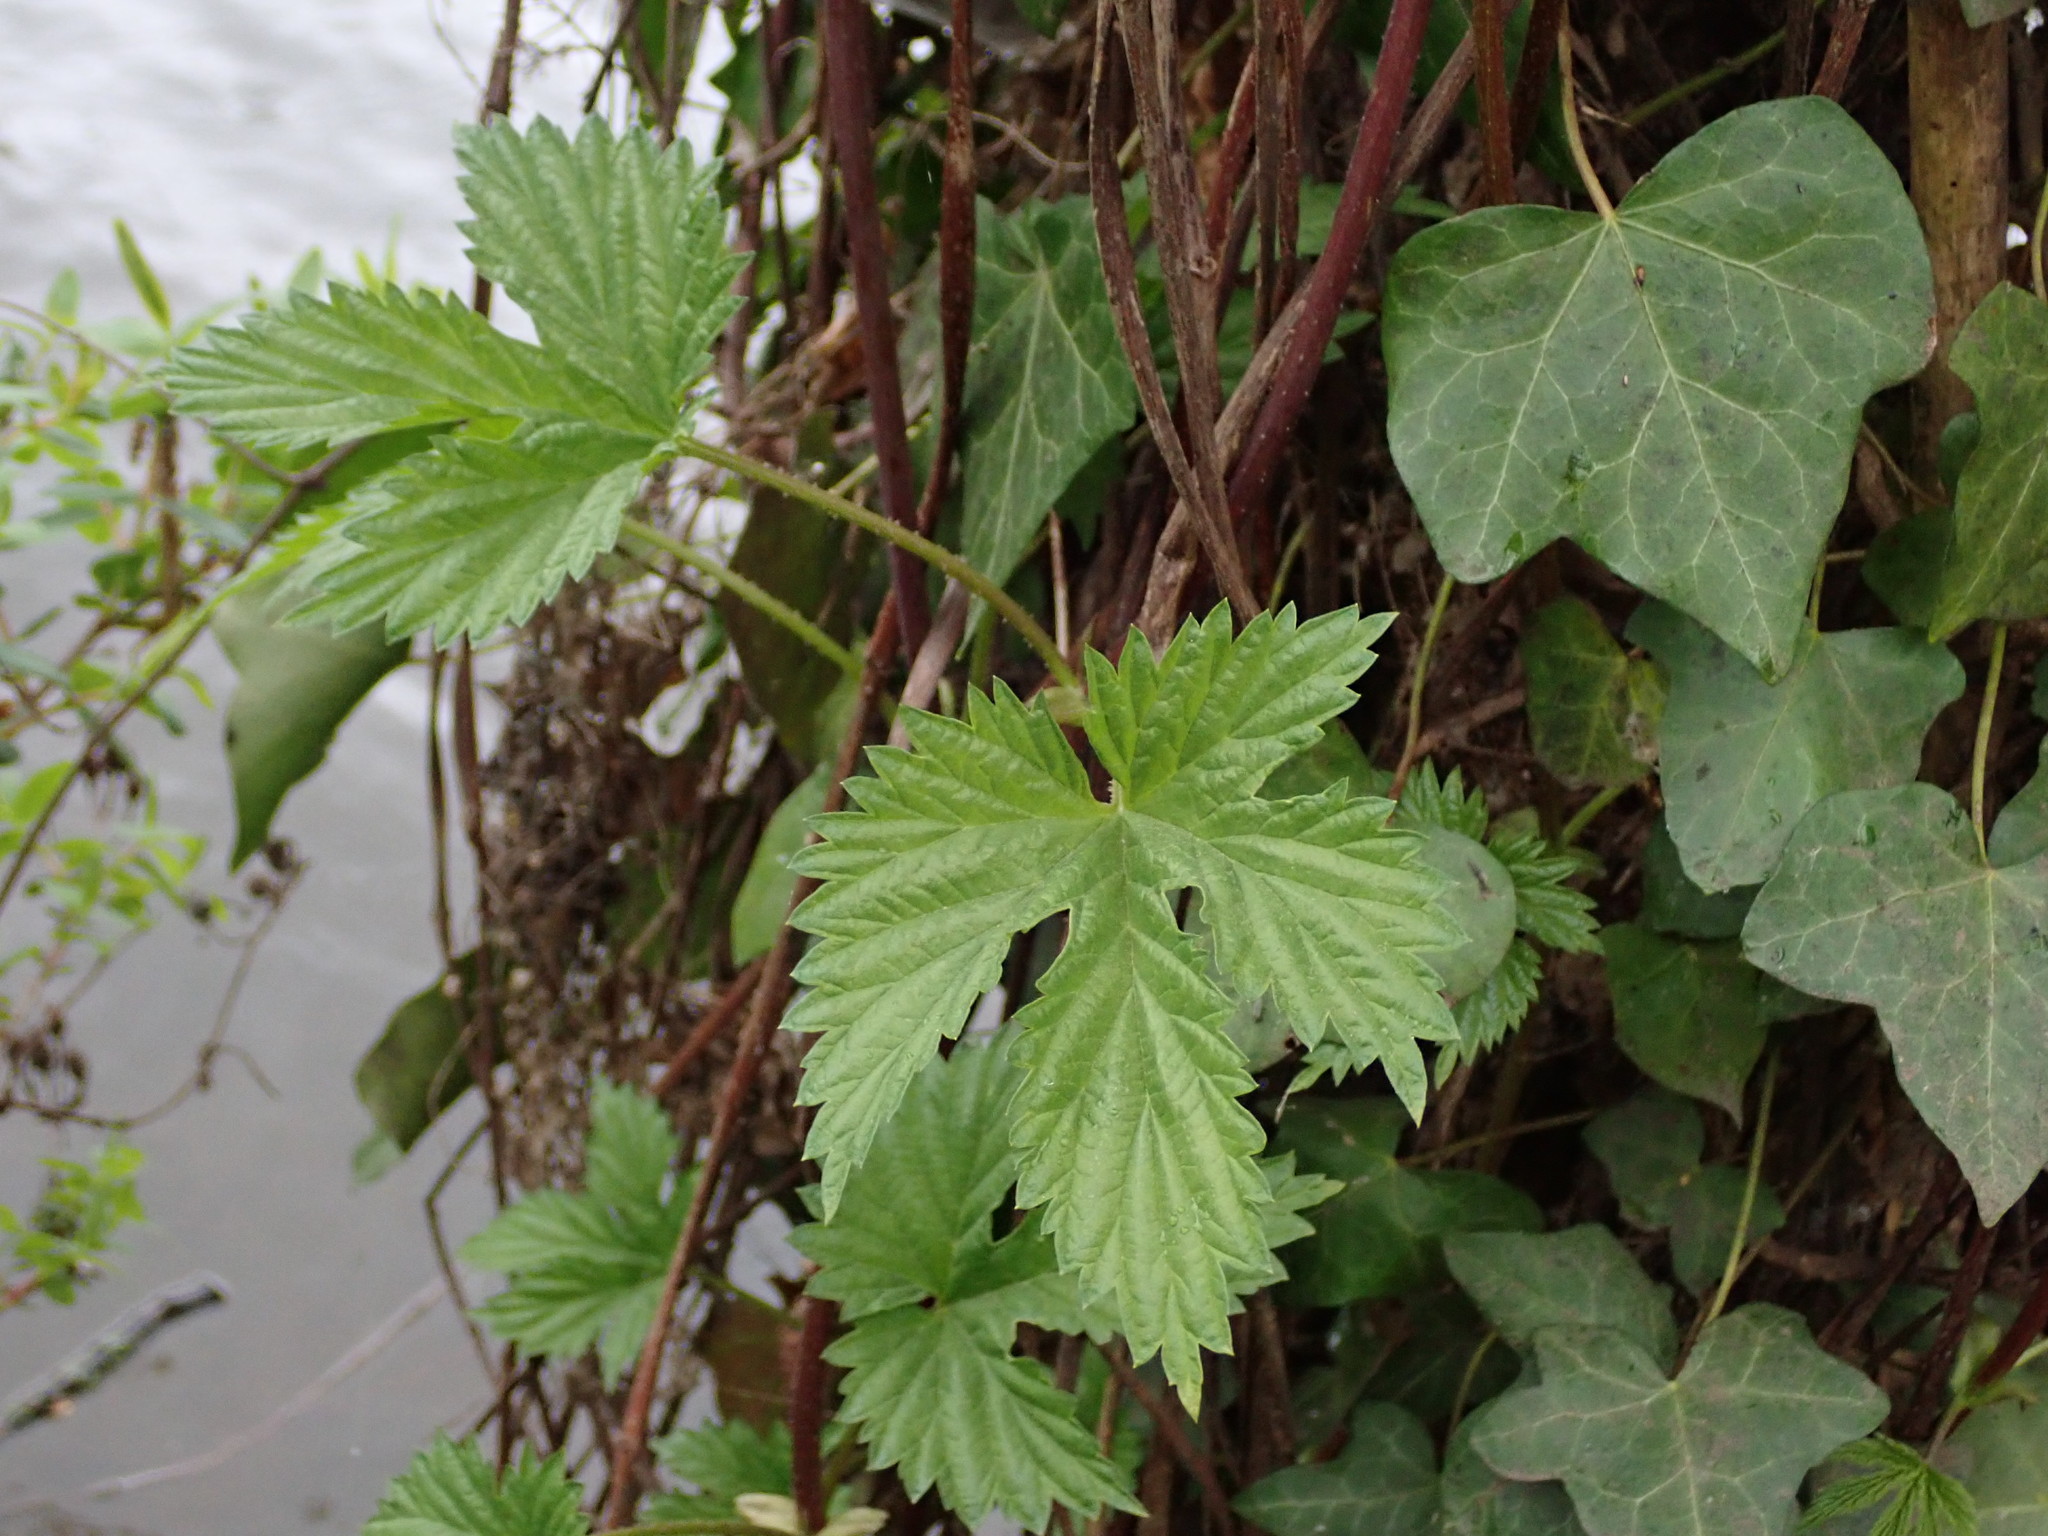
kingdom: Plantae
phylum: Tracheophyta
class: Magnoliopsida
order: Rosales
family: Cannabaceae
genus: Humulus
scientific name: Humulus lupulus
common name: Hop
